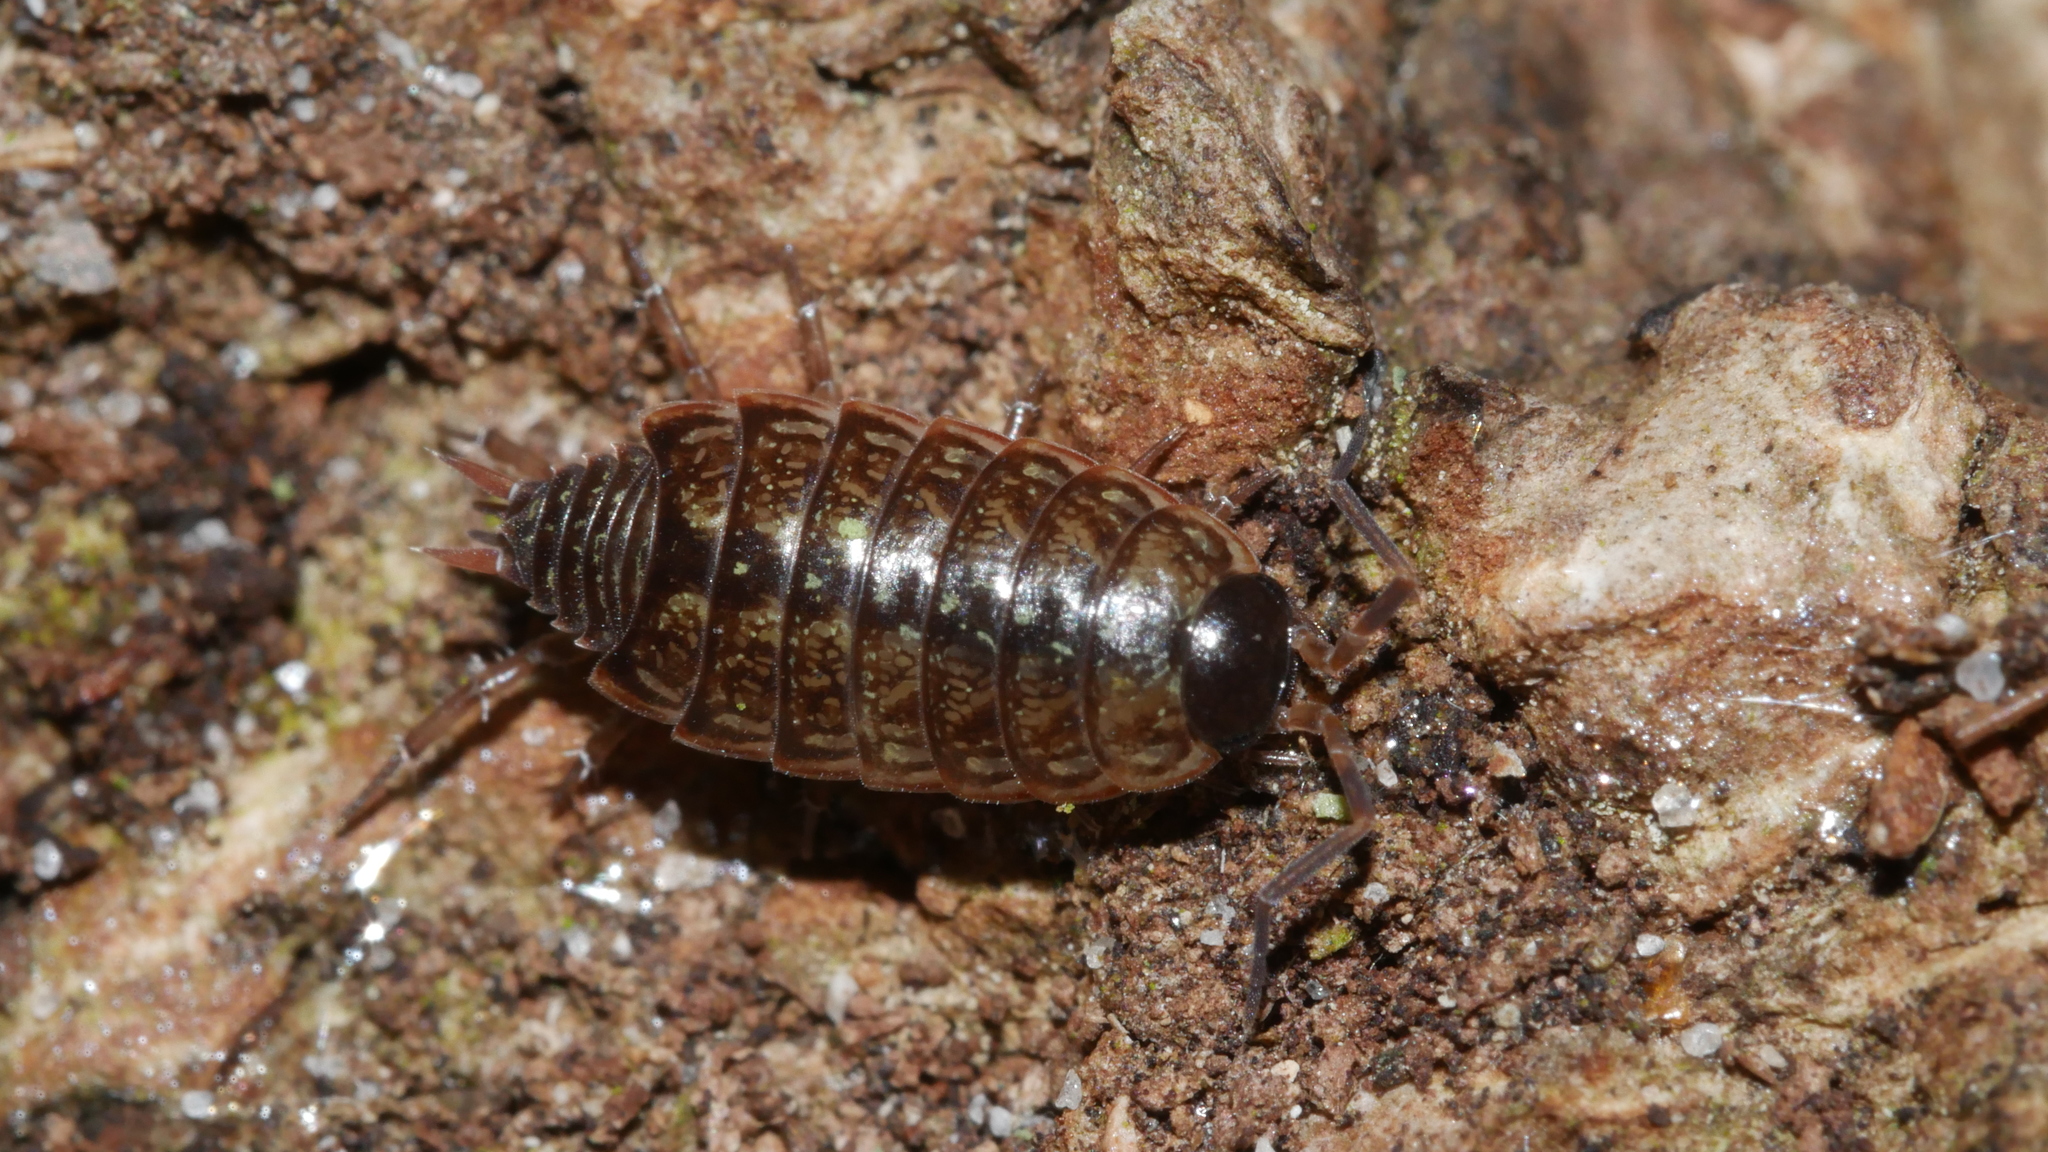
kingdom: Animalia
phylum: Arthropoda
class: Malacostraca
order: Isopoda
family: Philosciidae
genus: Philoscia
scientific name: Philoscia muscorum
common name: Common striped woodlouse
